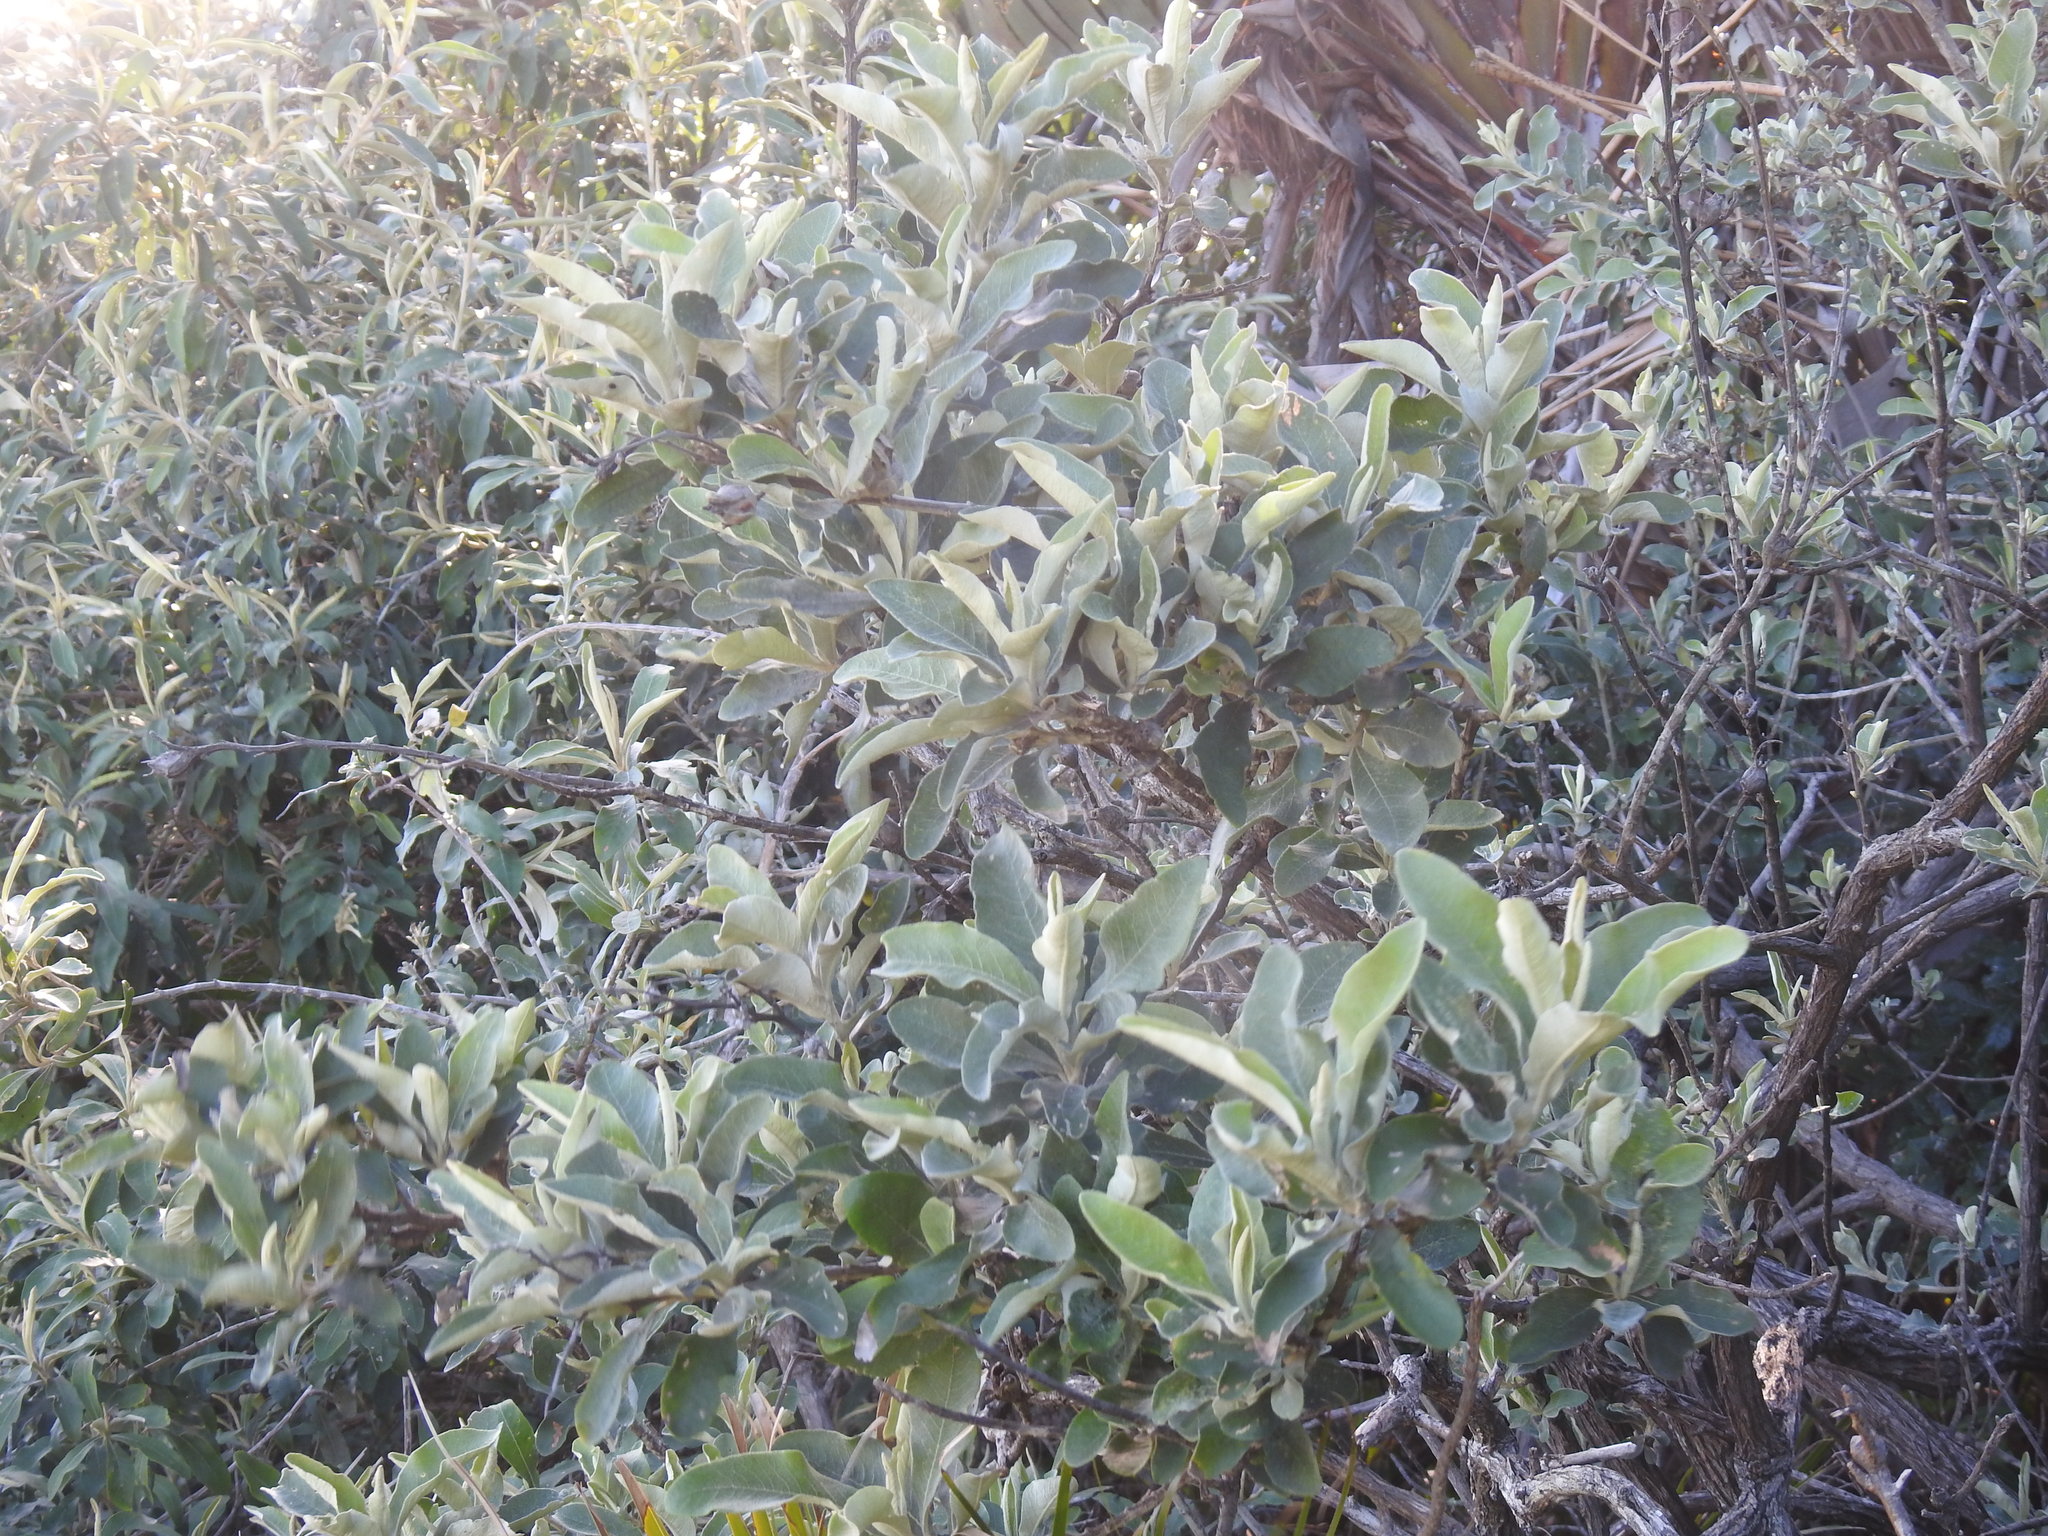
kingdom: Plantae
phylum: Tracheophyta
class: Magnoliopsida
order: Asterales
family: Asteraceae
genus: Tarchonanthus
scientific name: Tarchonanthus littoralis
